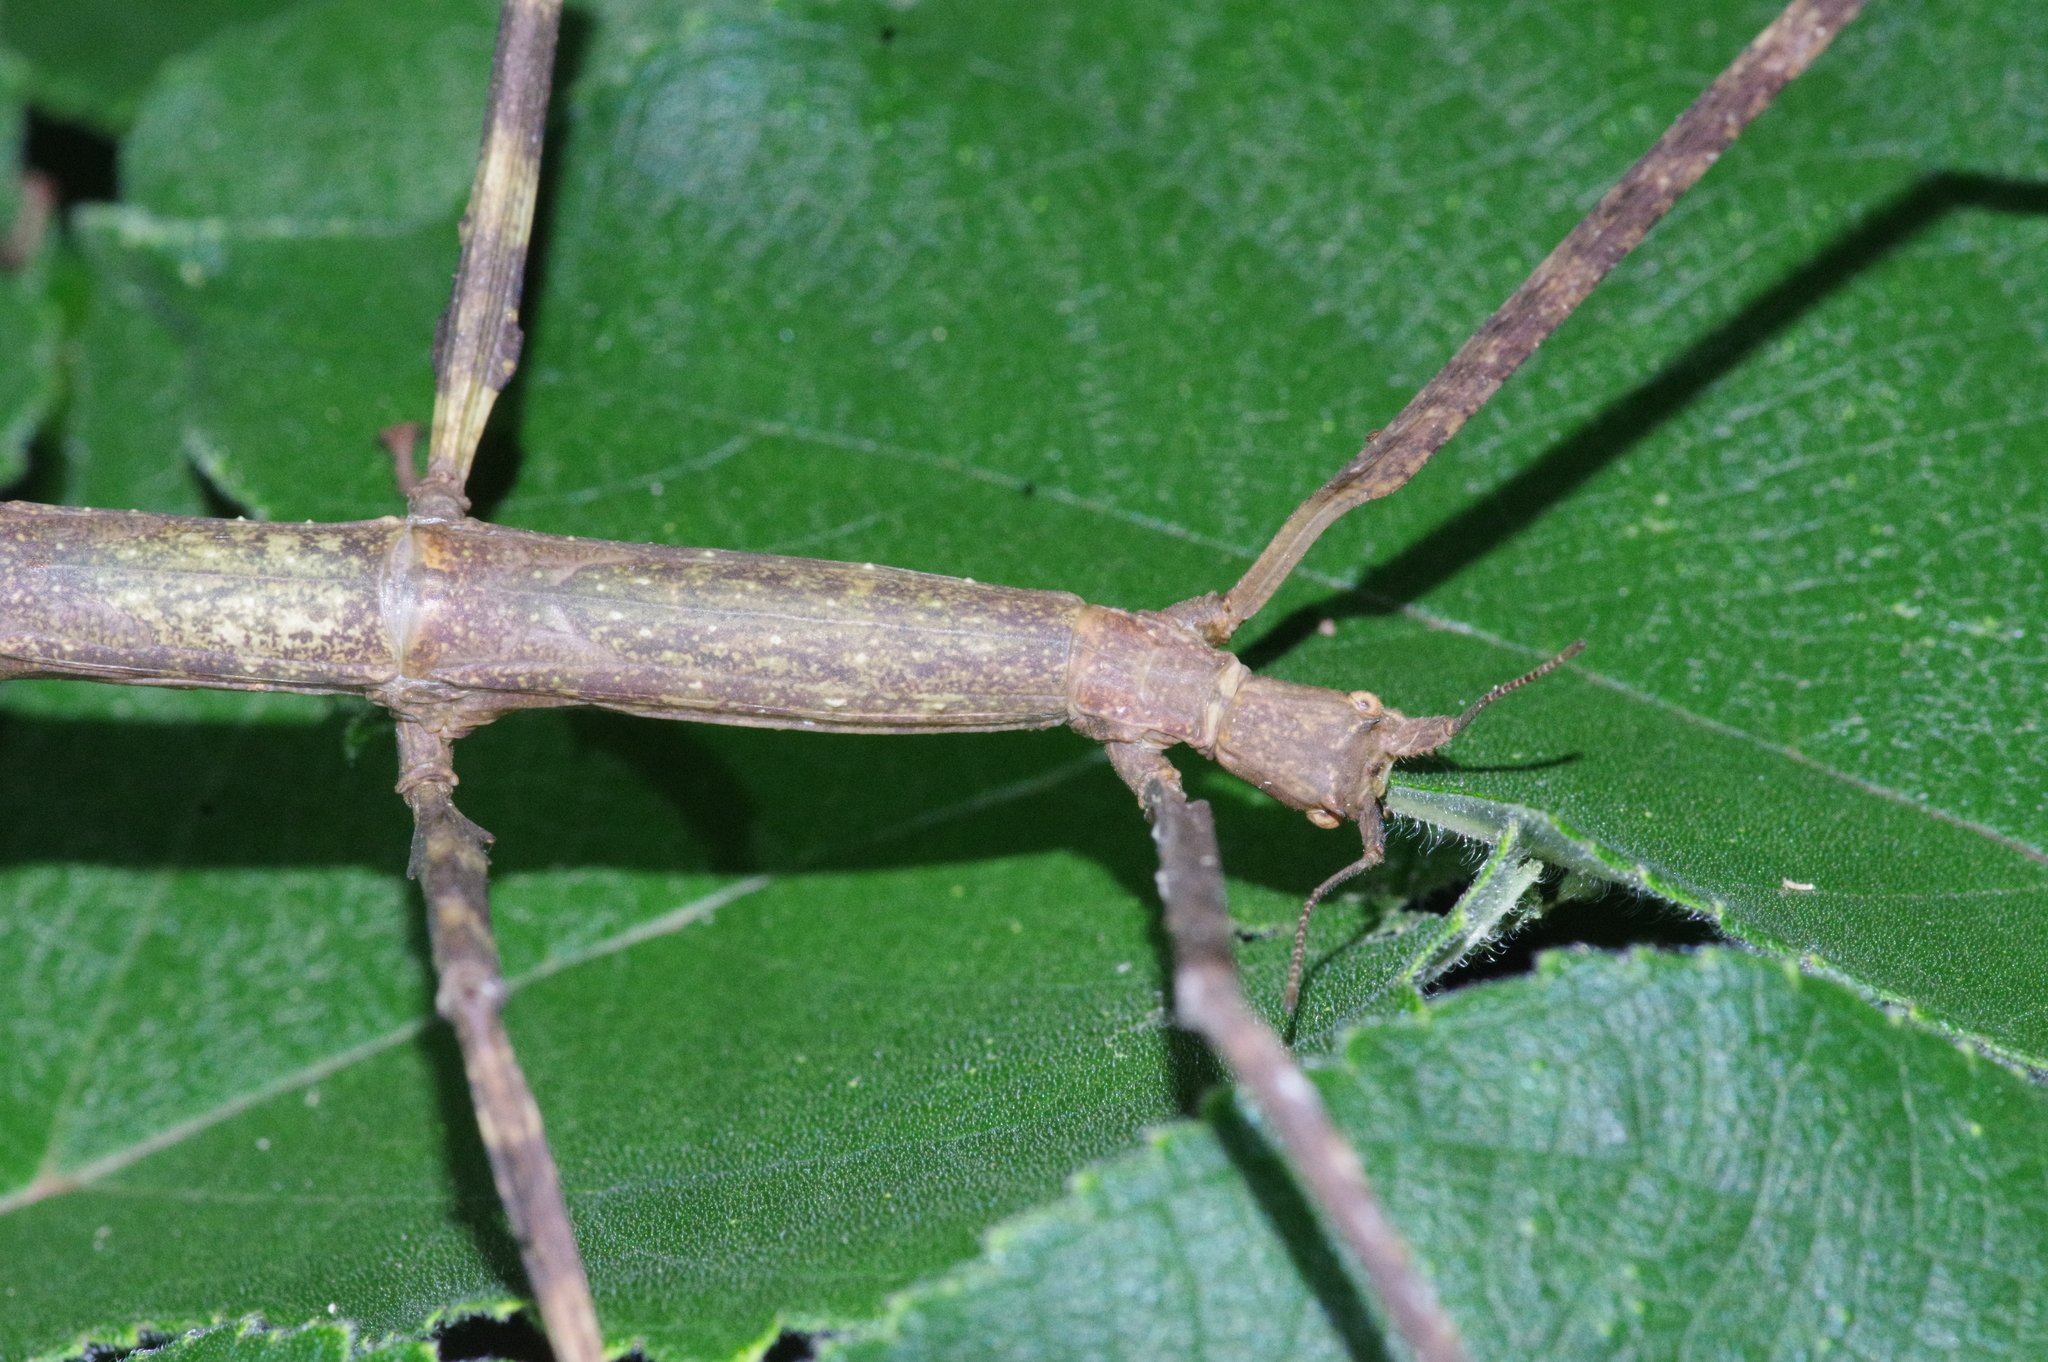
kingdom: Animalia
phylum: Arthropoda
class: Insecta
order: Phasmida
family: Phasmatidae
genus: Entoria
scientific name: Entoria miyakoensis
